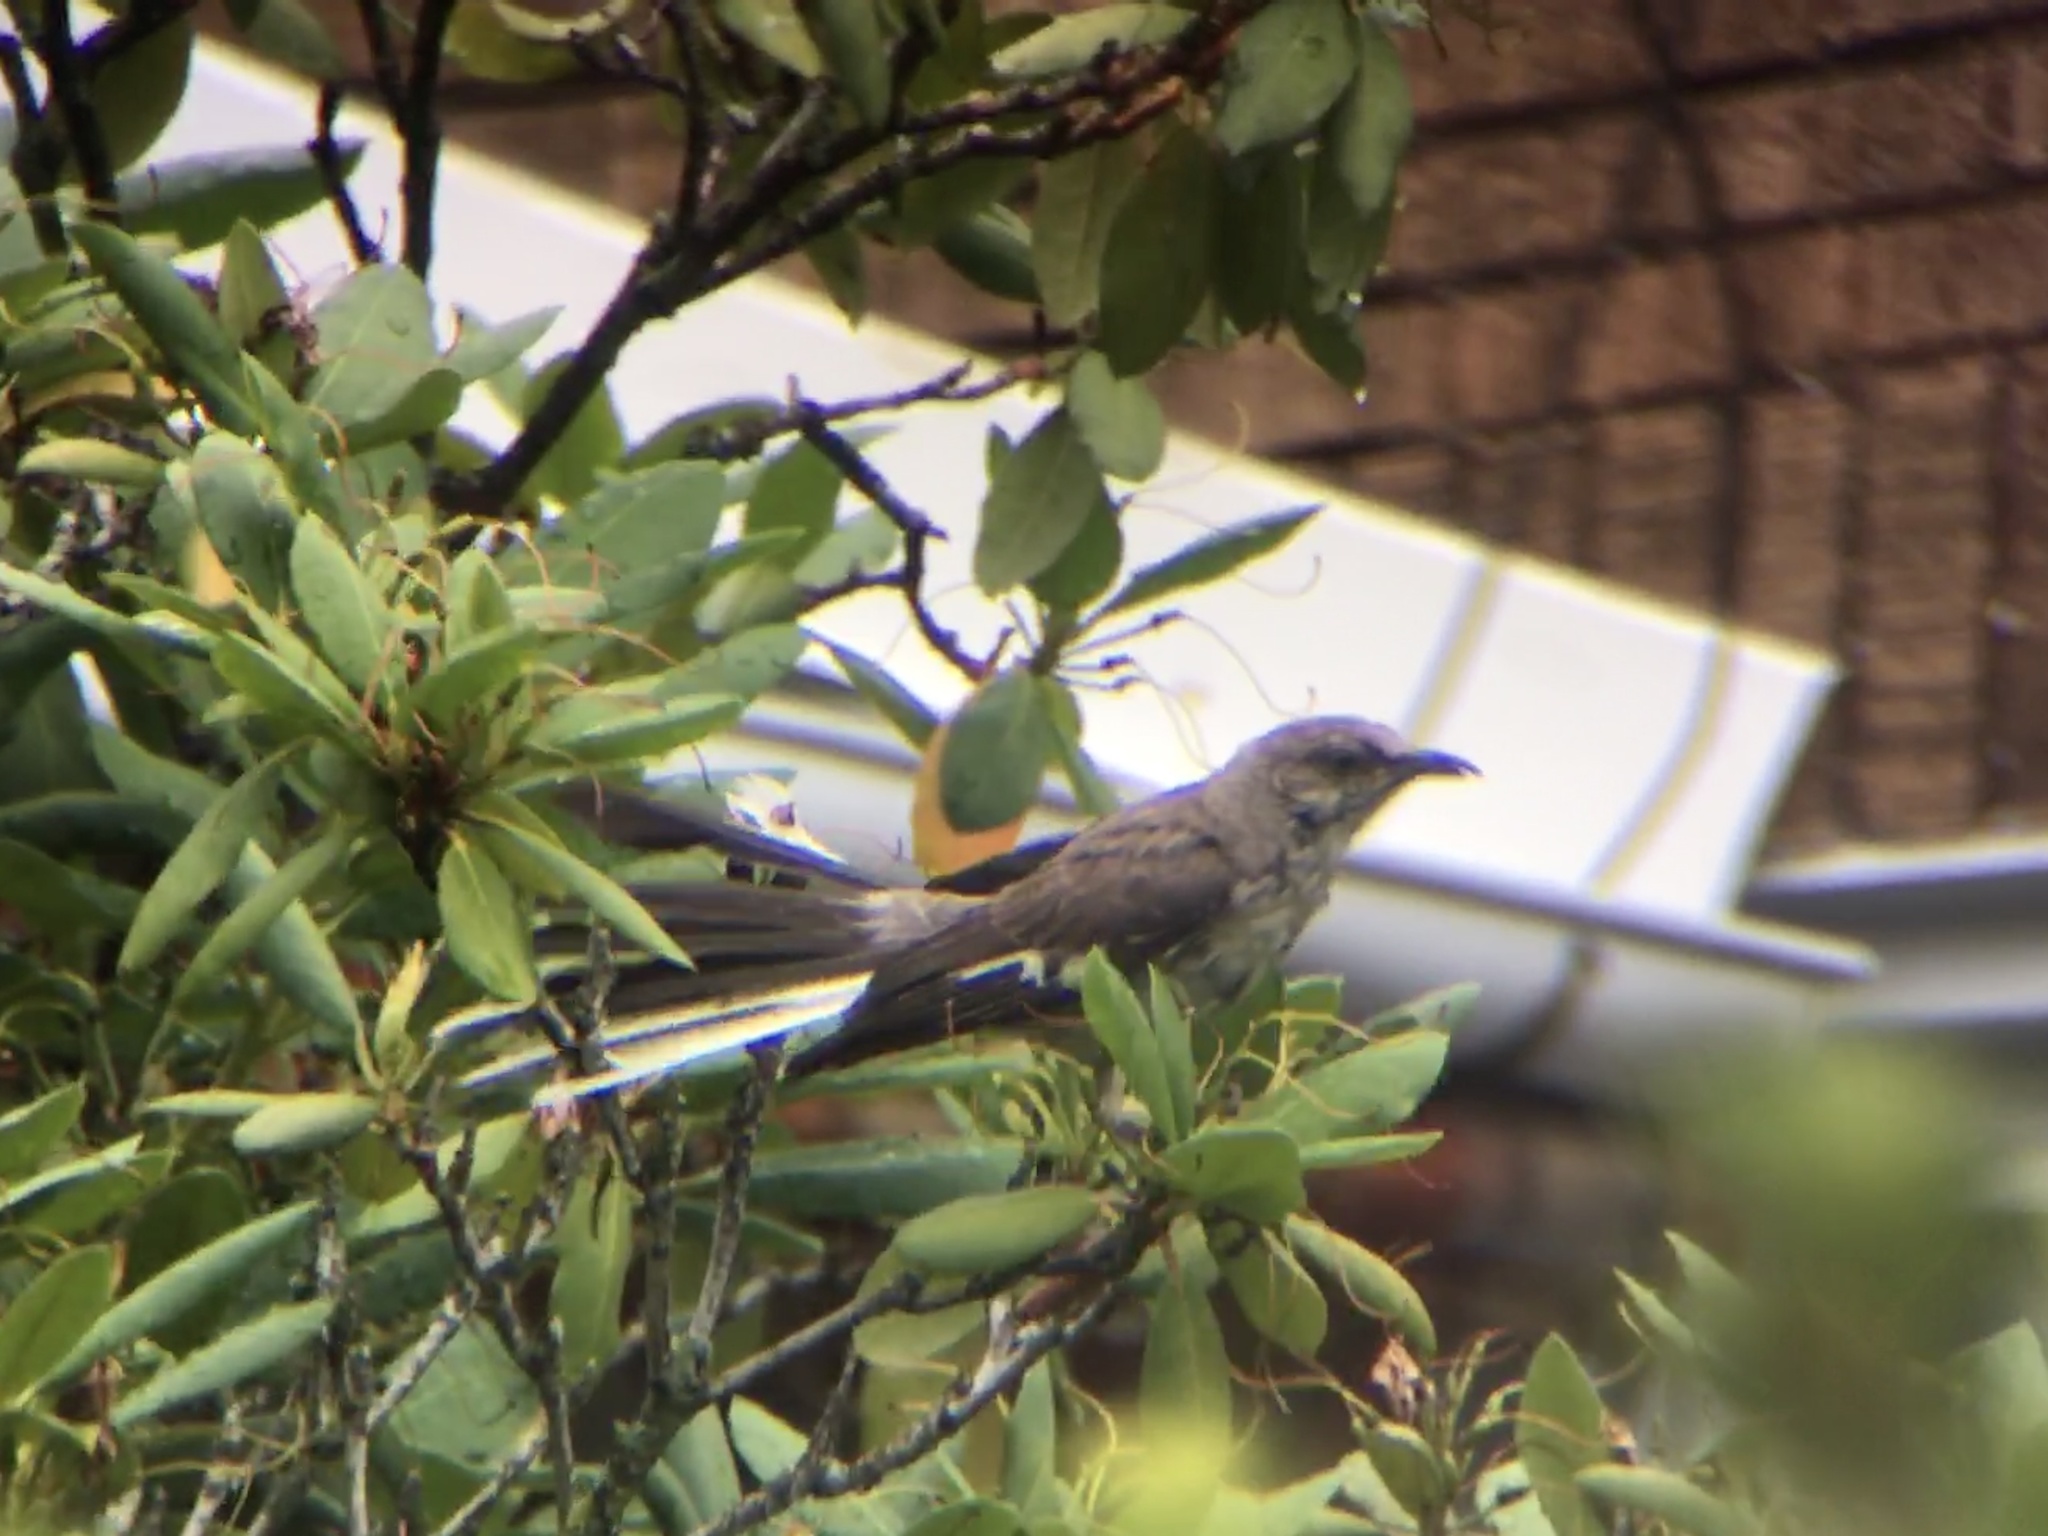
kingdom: Animalia
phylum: Chordata
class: Aves
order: Passeriformes
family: Mimidae
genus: Mimus
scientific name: Mimus polyglottos
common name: Northern mockingbird
